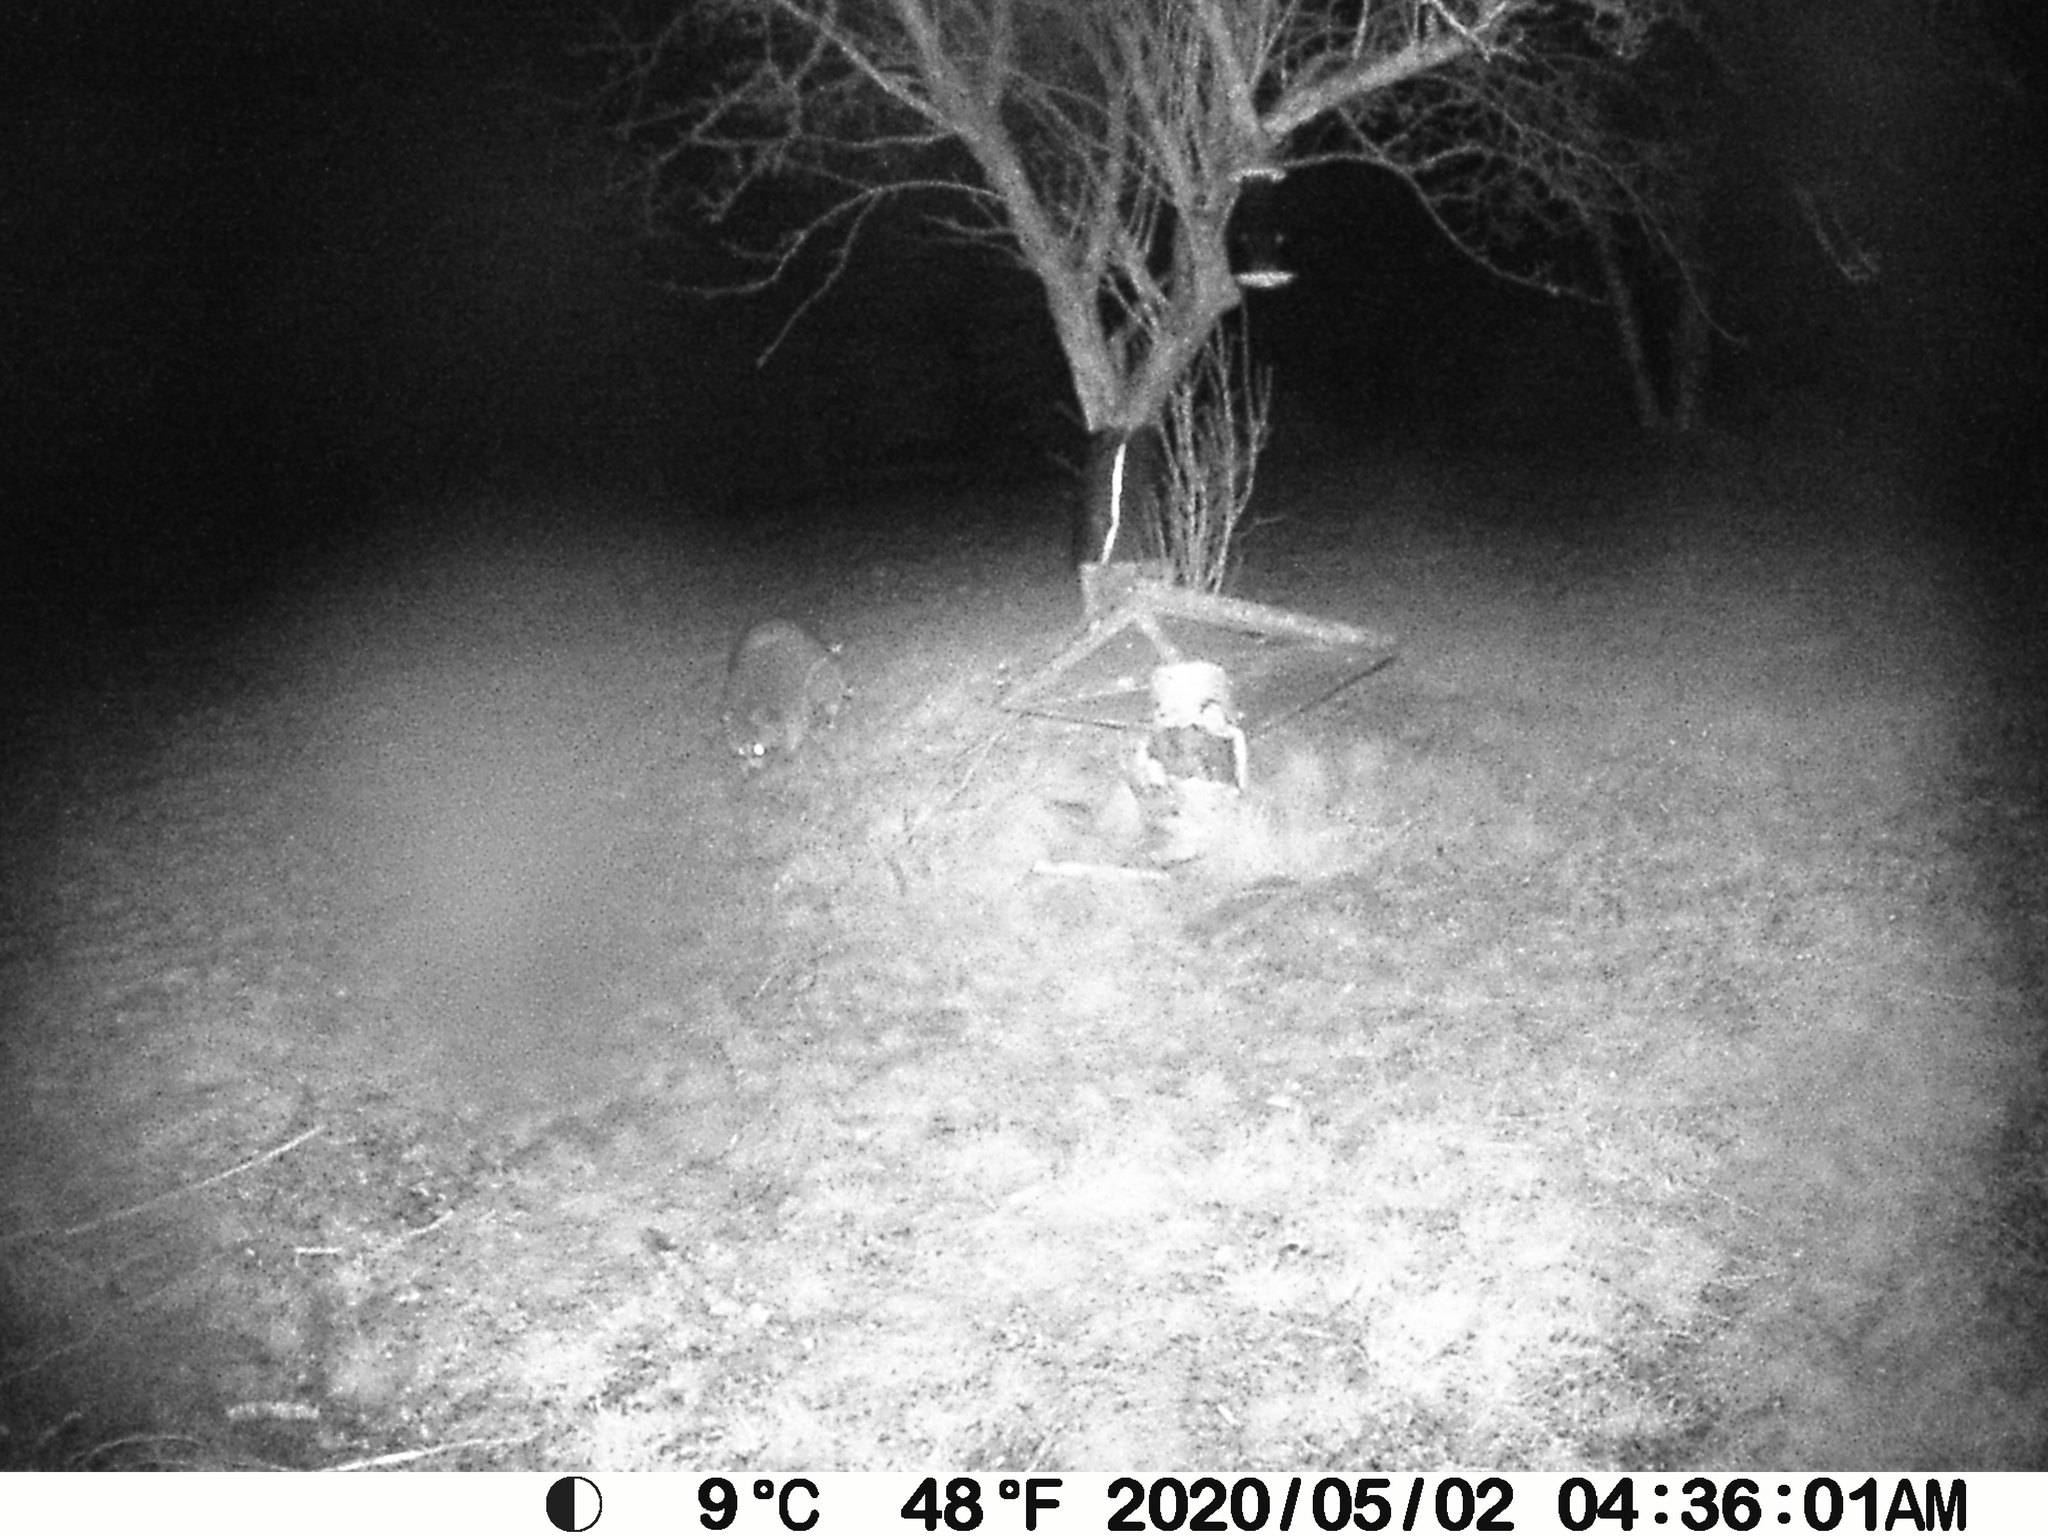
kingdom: Animalia
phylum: Chordata
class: Mammalia
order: Carnivora
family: Procyonidae
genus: Procyon
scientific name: Procyon lotor
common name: Raccoon
